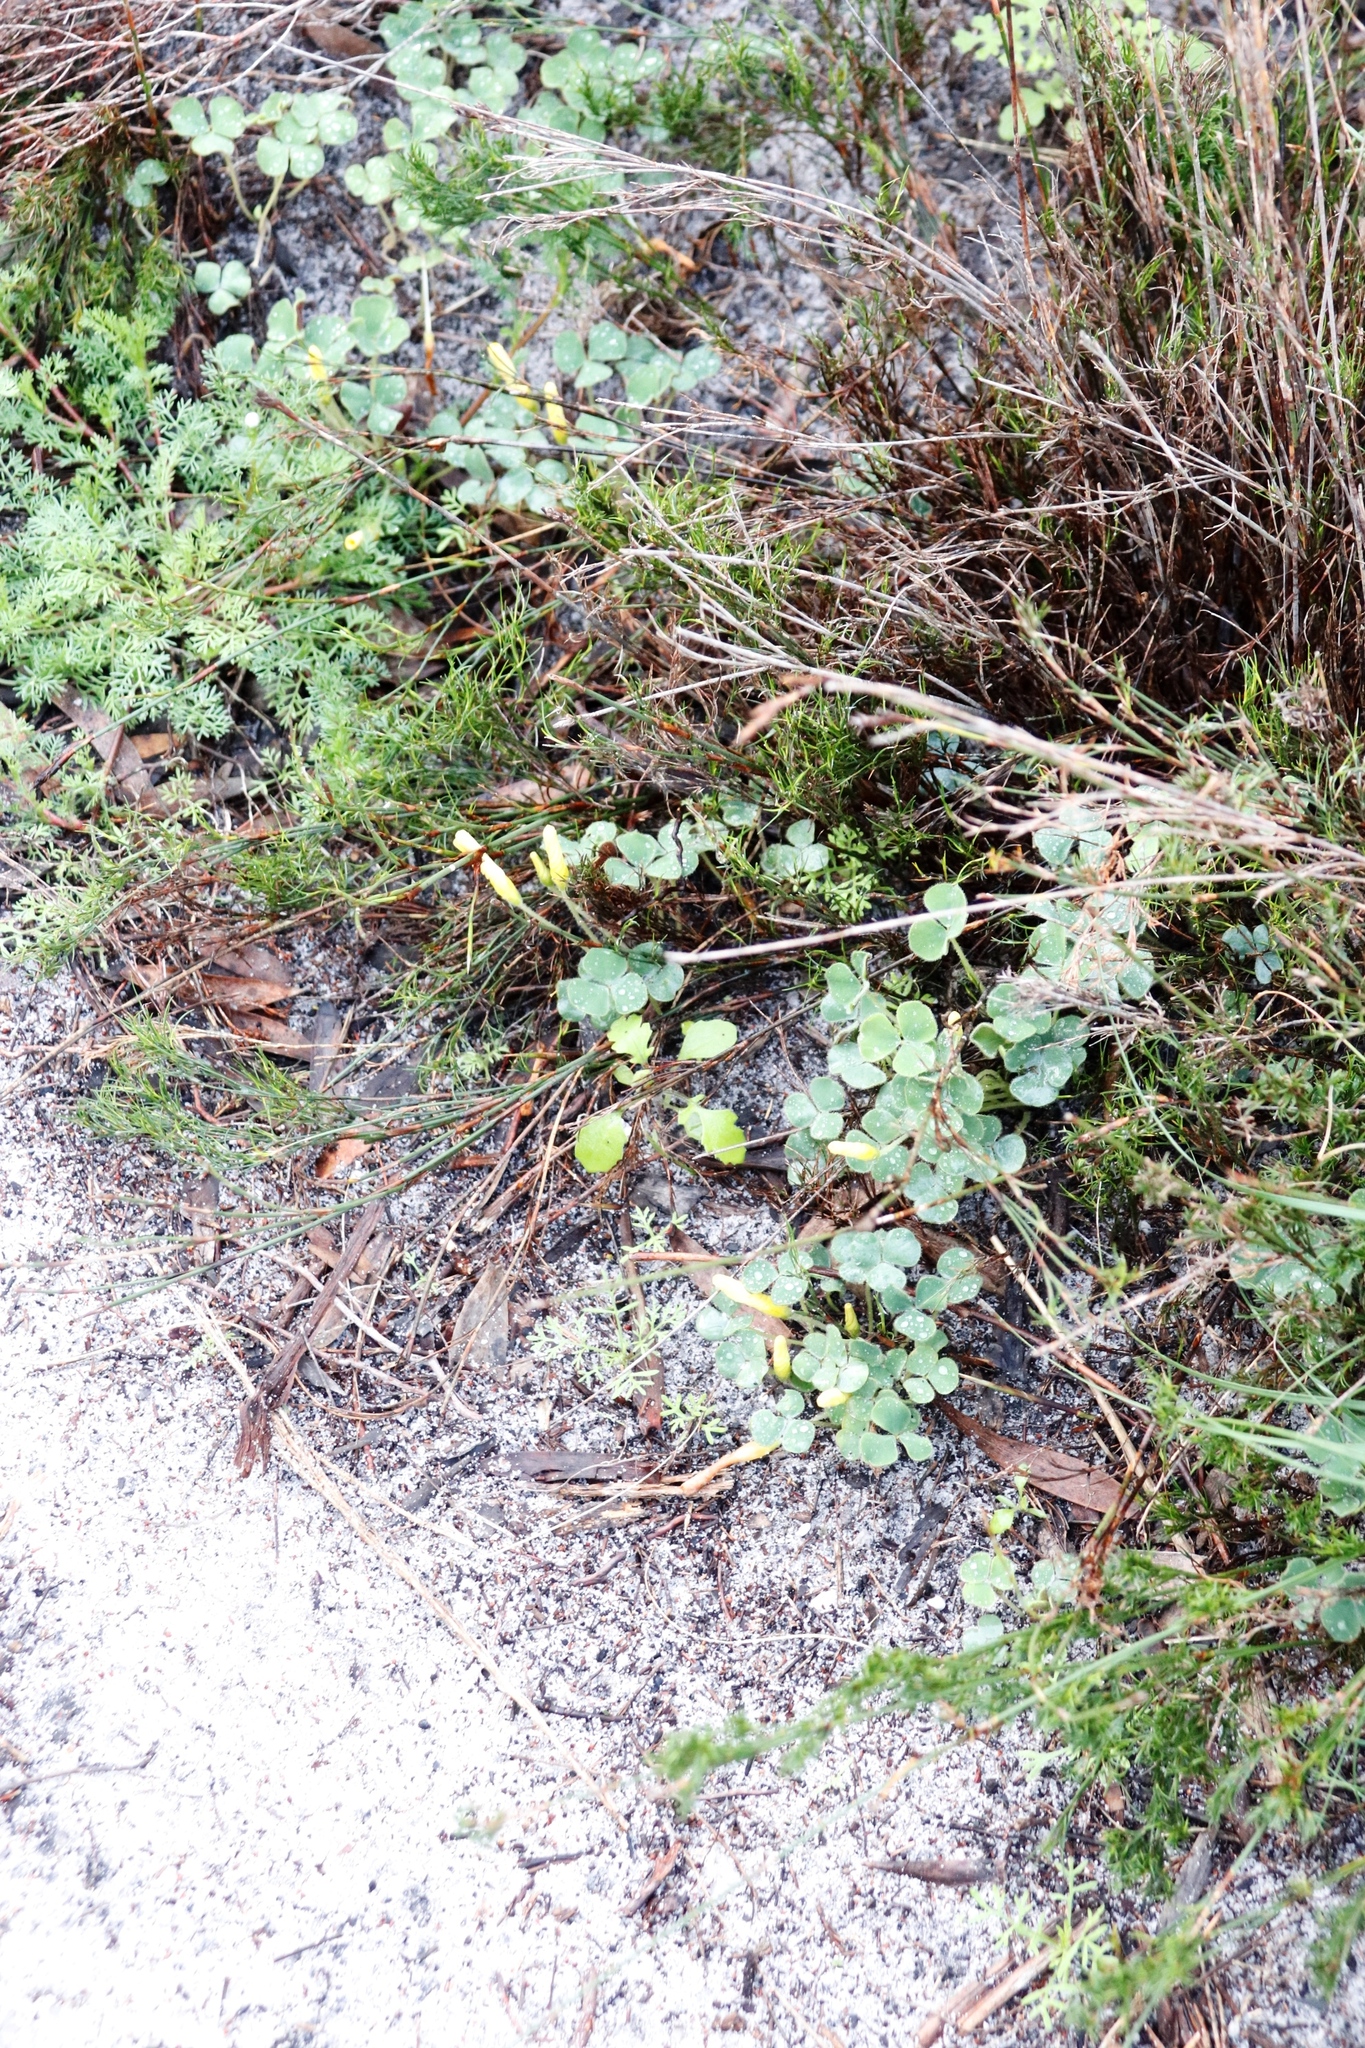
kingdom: Plantae
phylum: Tracheophyta
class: Magnoliopsida
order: Oxalidales
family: Oxalidaceae
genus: Oxalis
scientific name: Oxalis luteola
